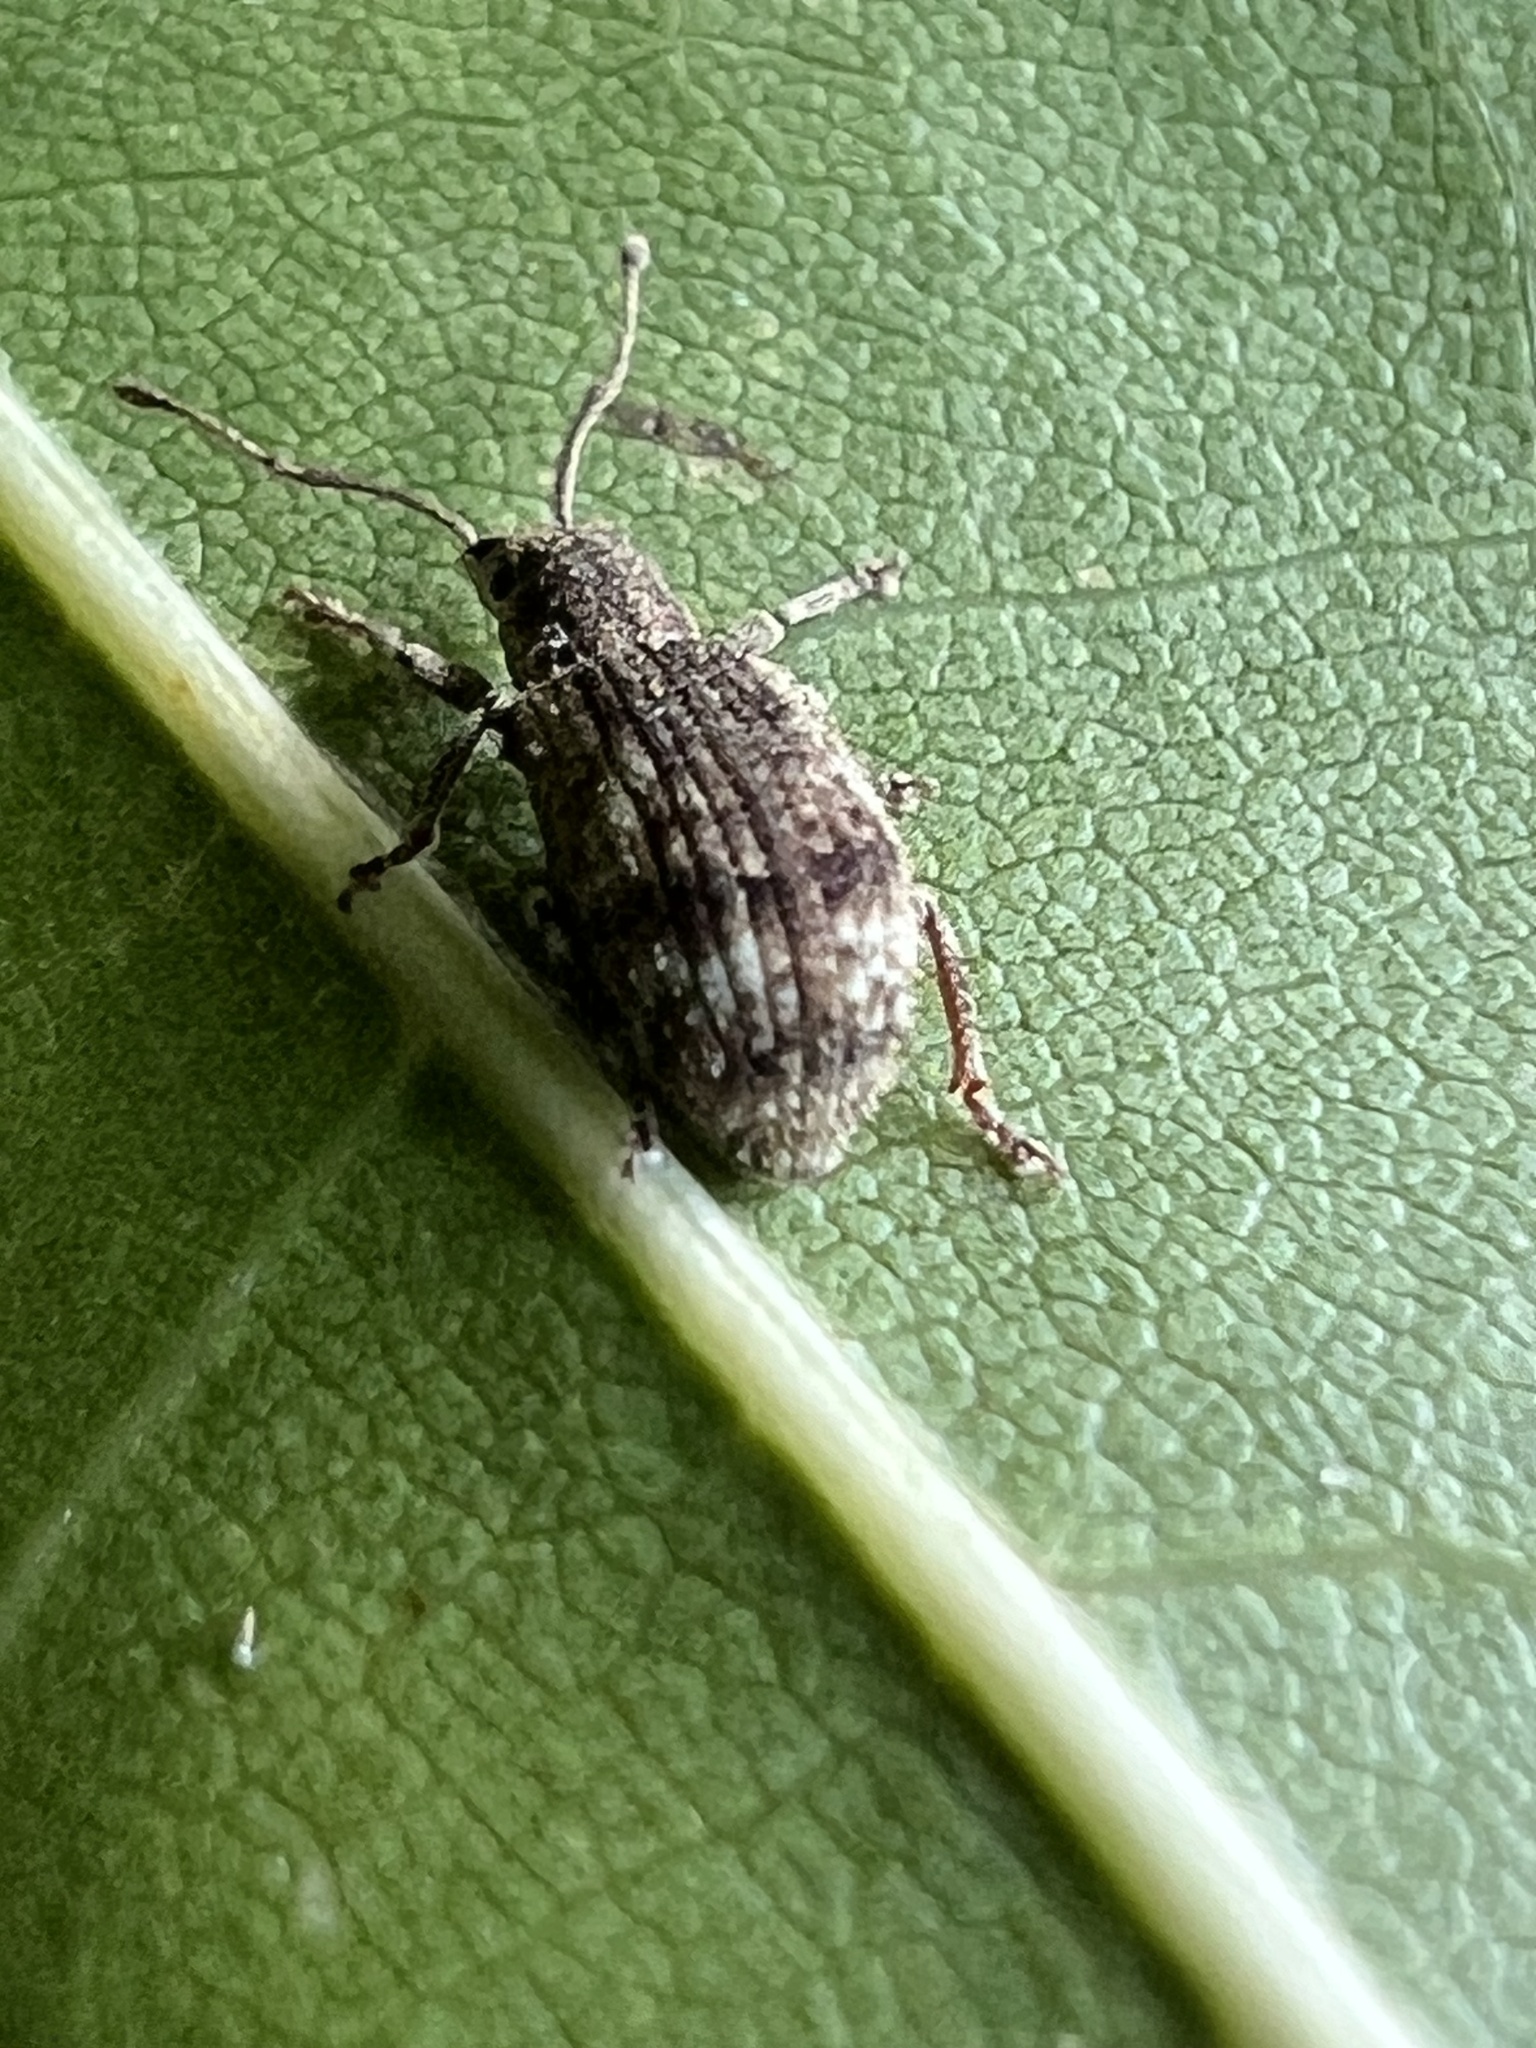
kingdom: Animalia
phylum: Arthropoda
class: Insecta
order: Coleoptera
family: Curculionidae
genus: Pseudoedophrys
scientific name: Pseudoedophrys hilleri
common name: Weevil
